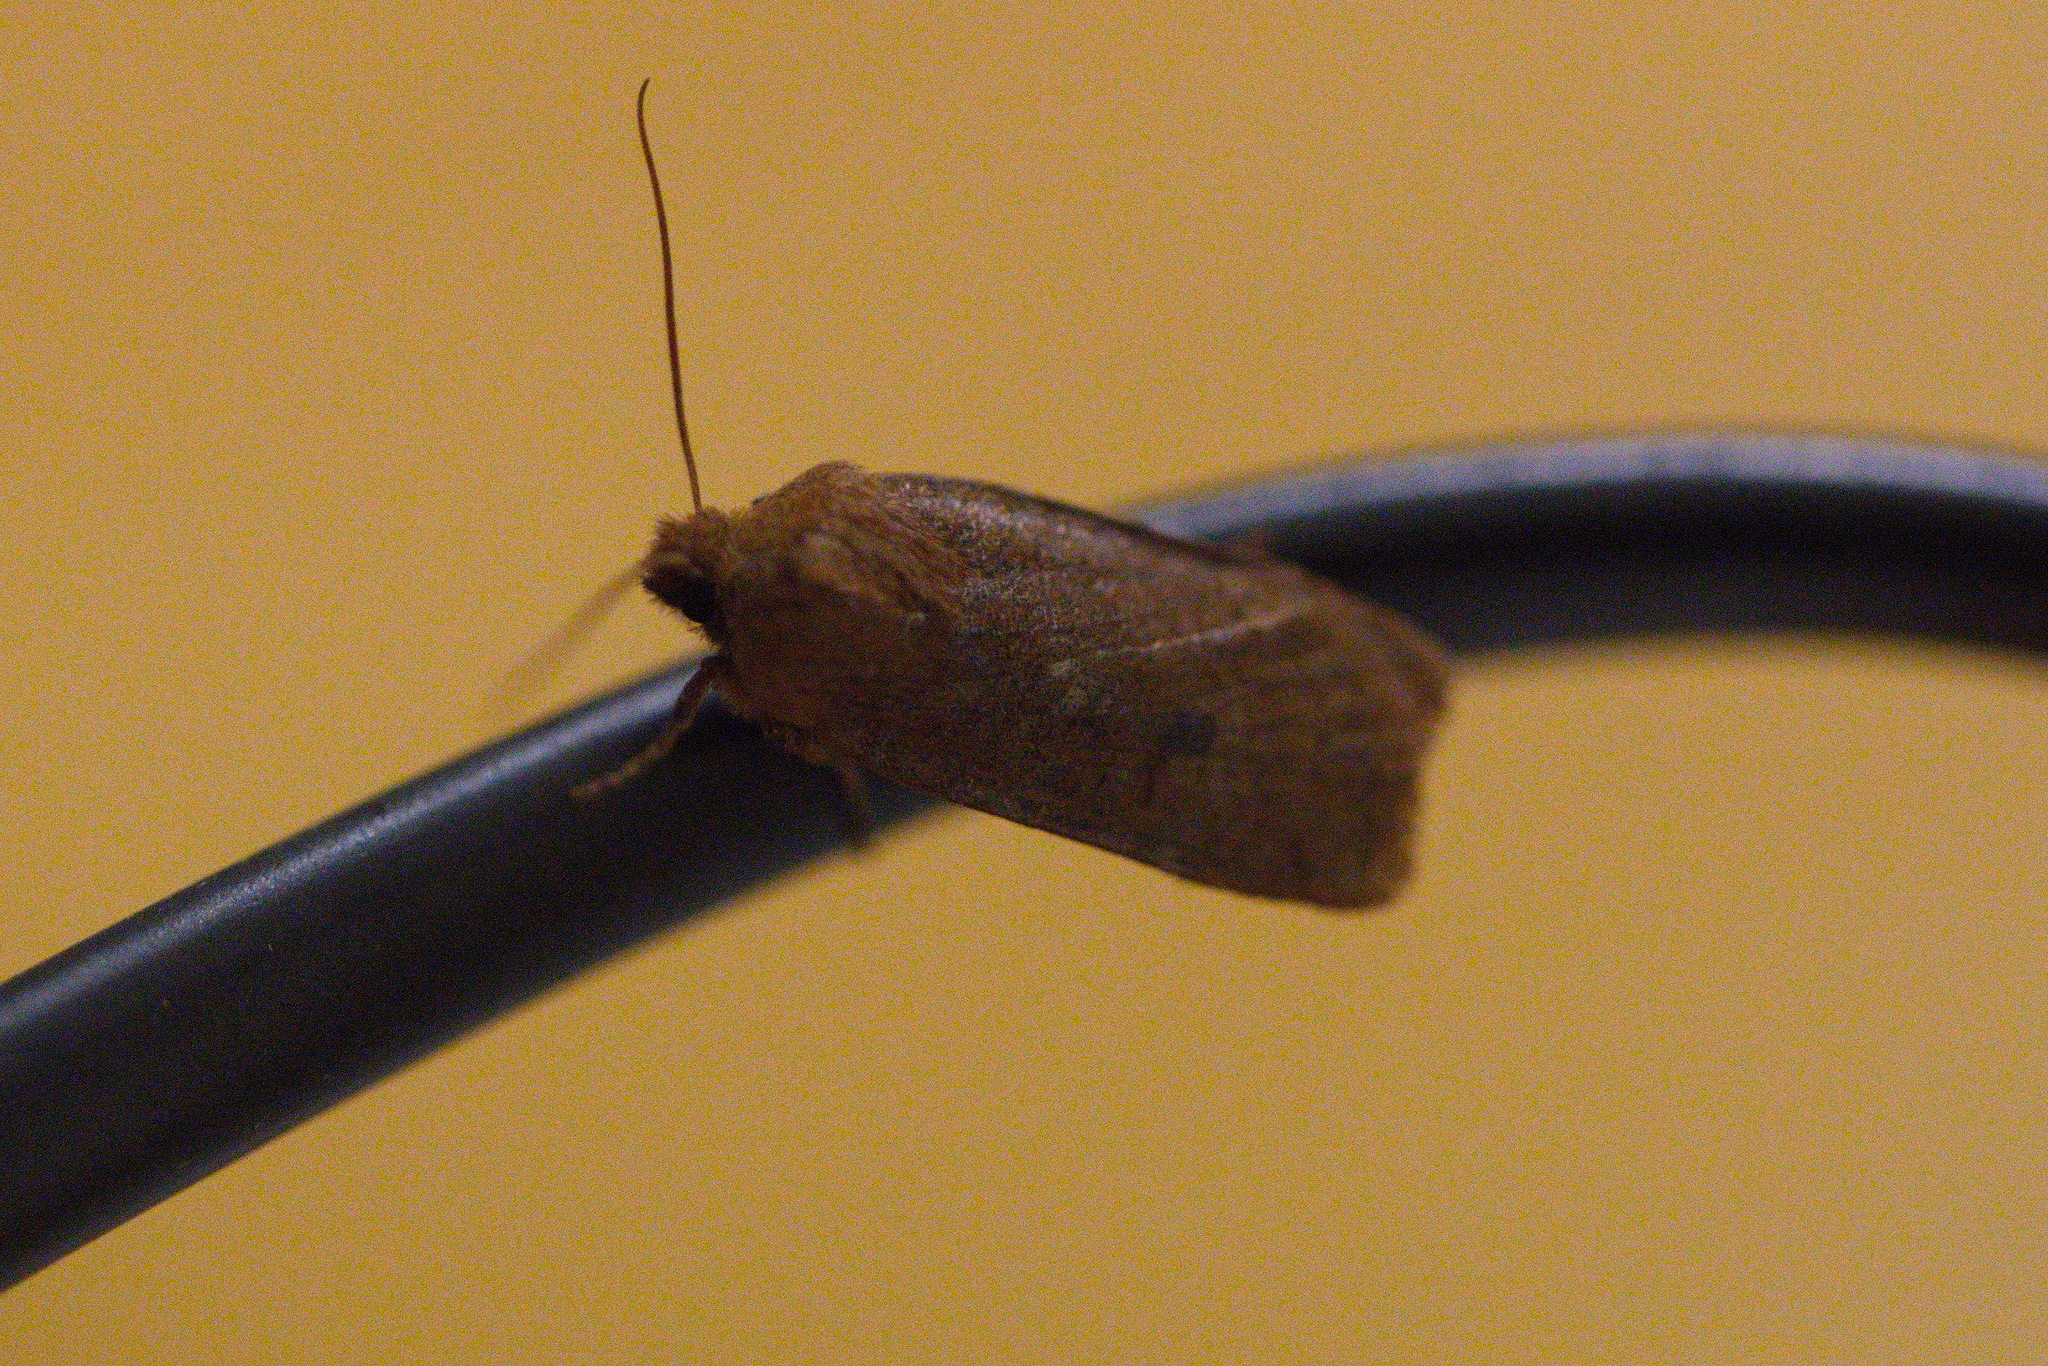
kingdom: Animalia
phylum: Arthropoda
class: Insecta
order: Lepidoptera
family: Noctuidae
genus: Conistra
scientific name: Conistra vaccinii
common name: Chestnut
